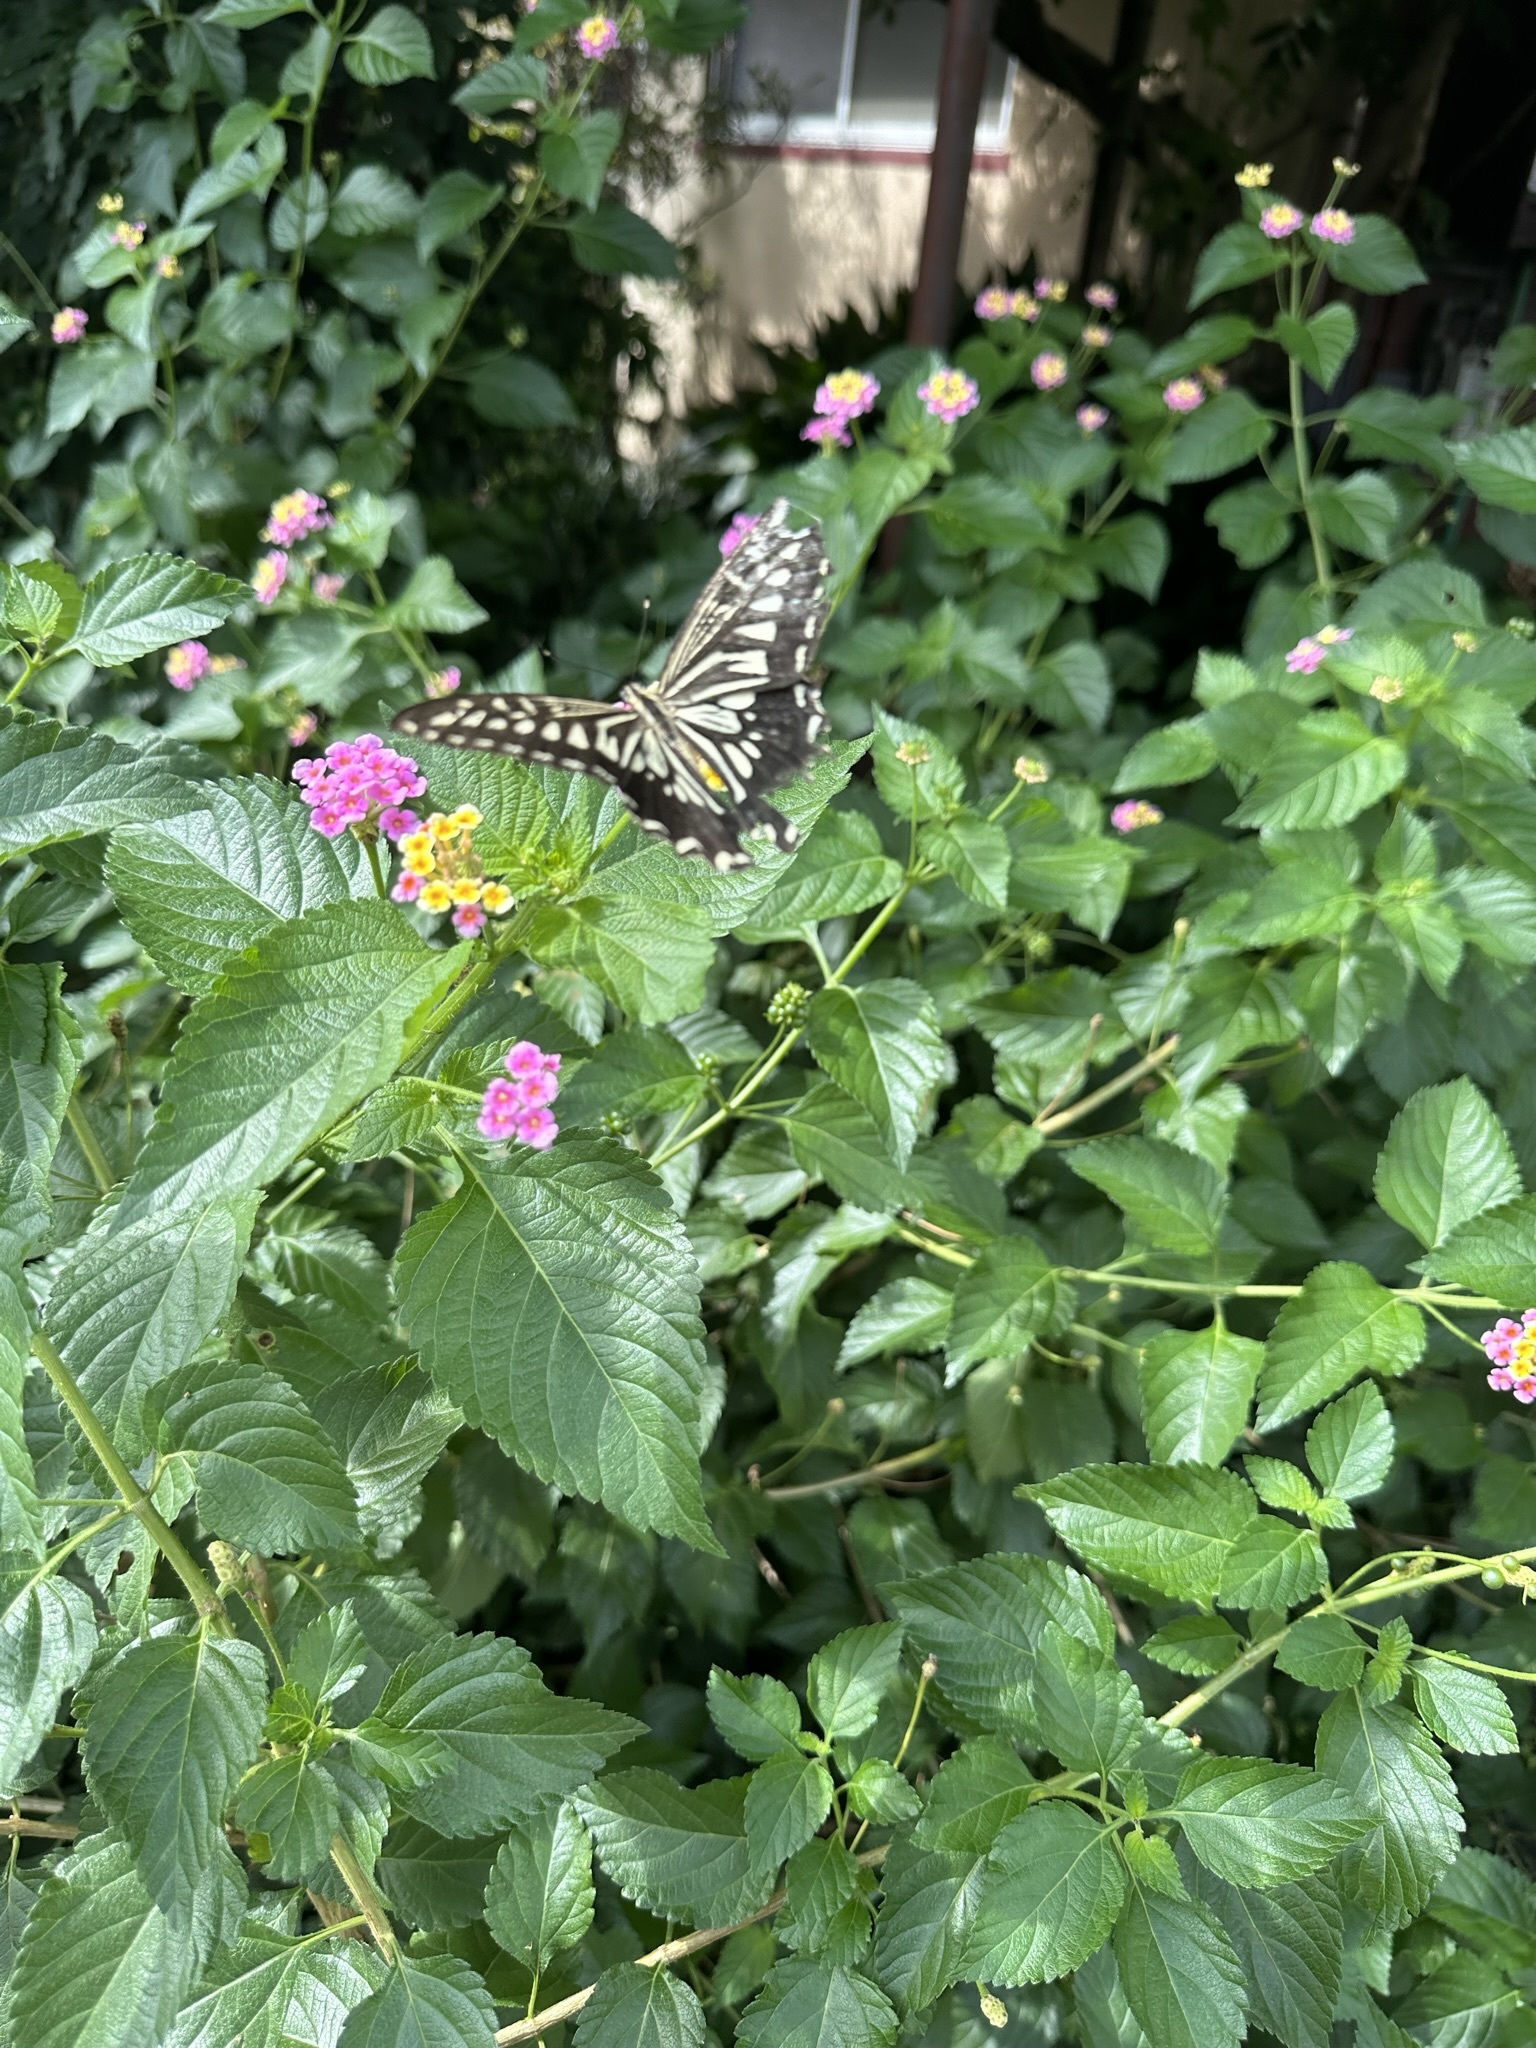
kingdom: Animalia
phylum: Arthropoda
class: Insecta
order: Lepidoptera
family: Papilionidae
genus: Papilio
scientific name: Papilio xuthus
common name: Asian swallowtail
